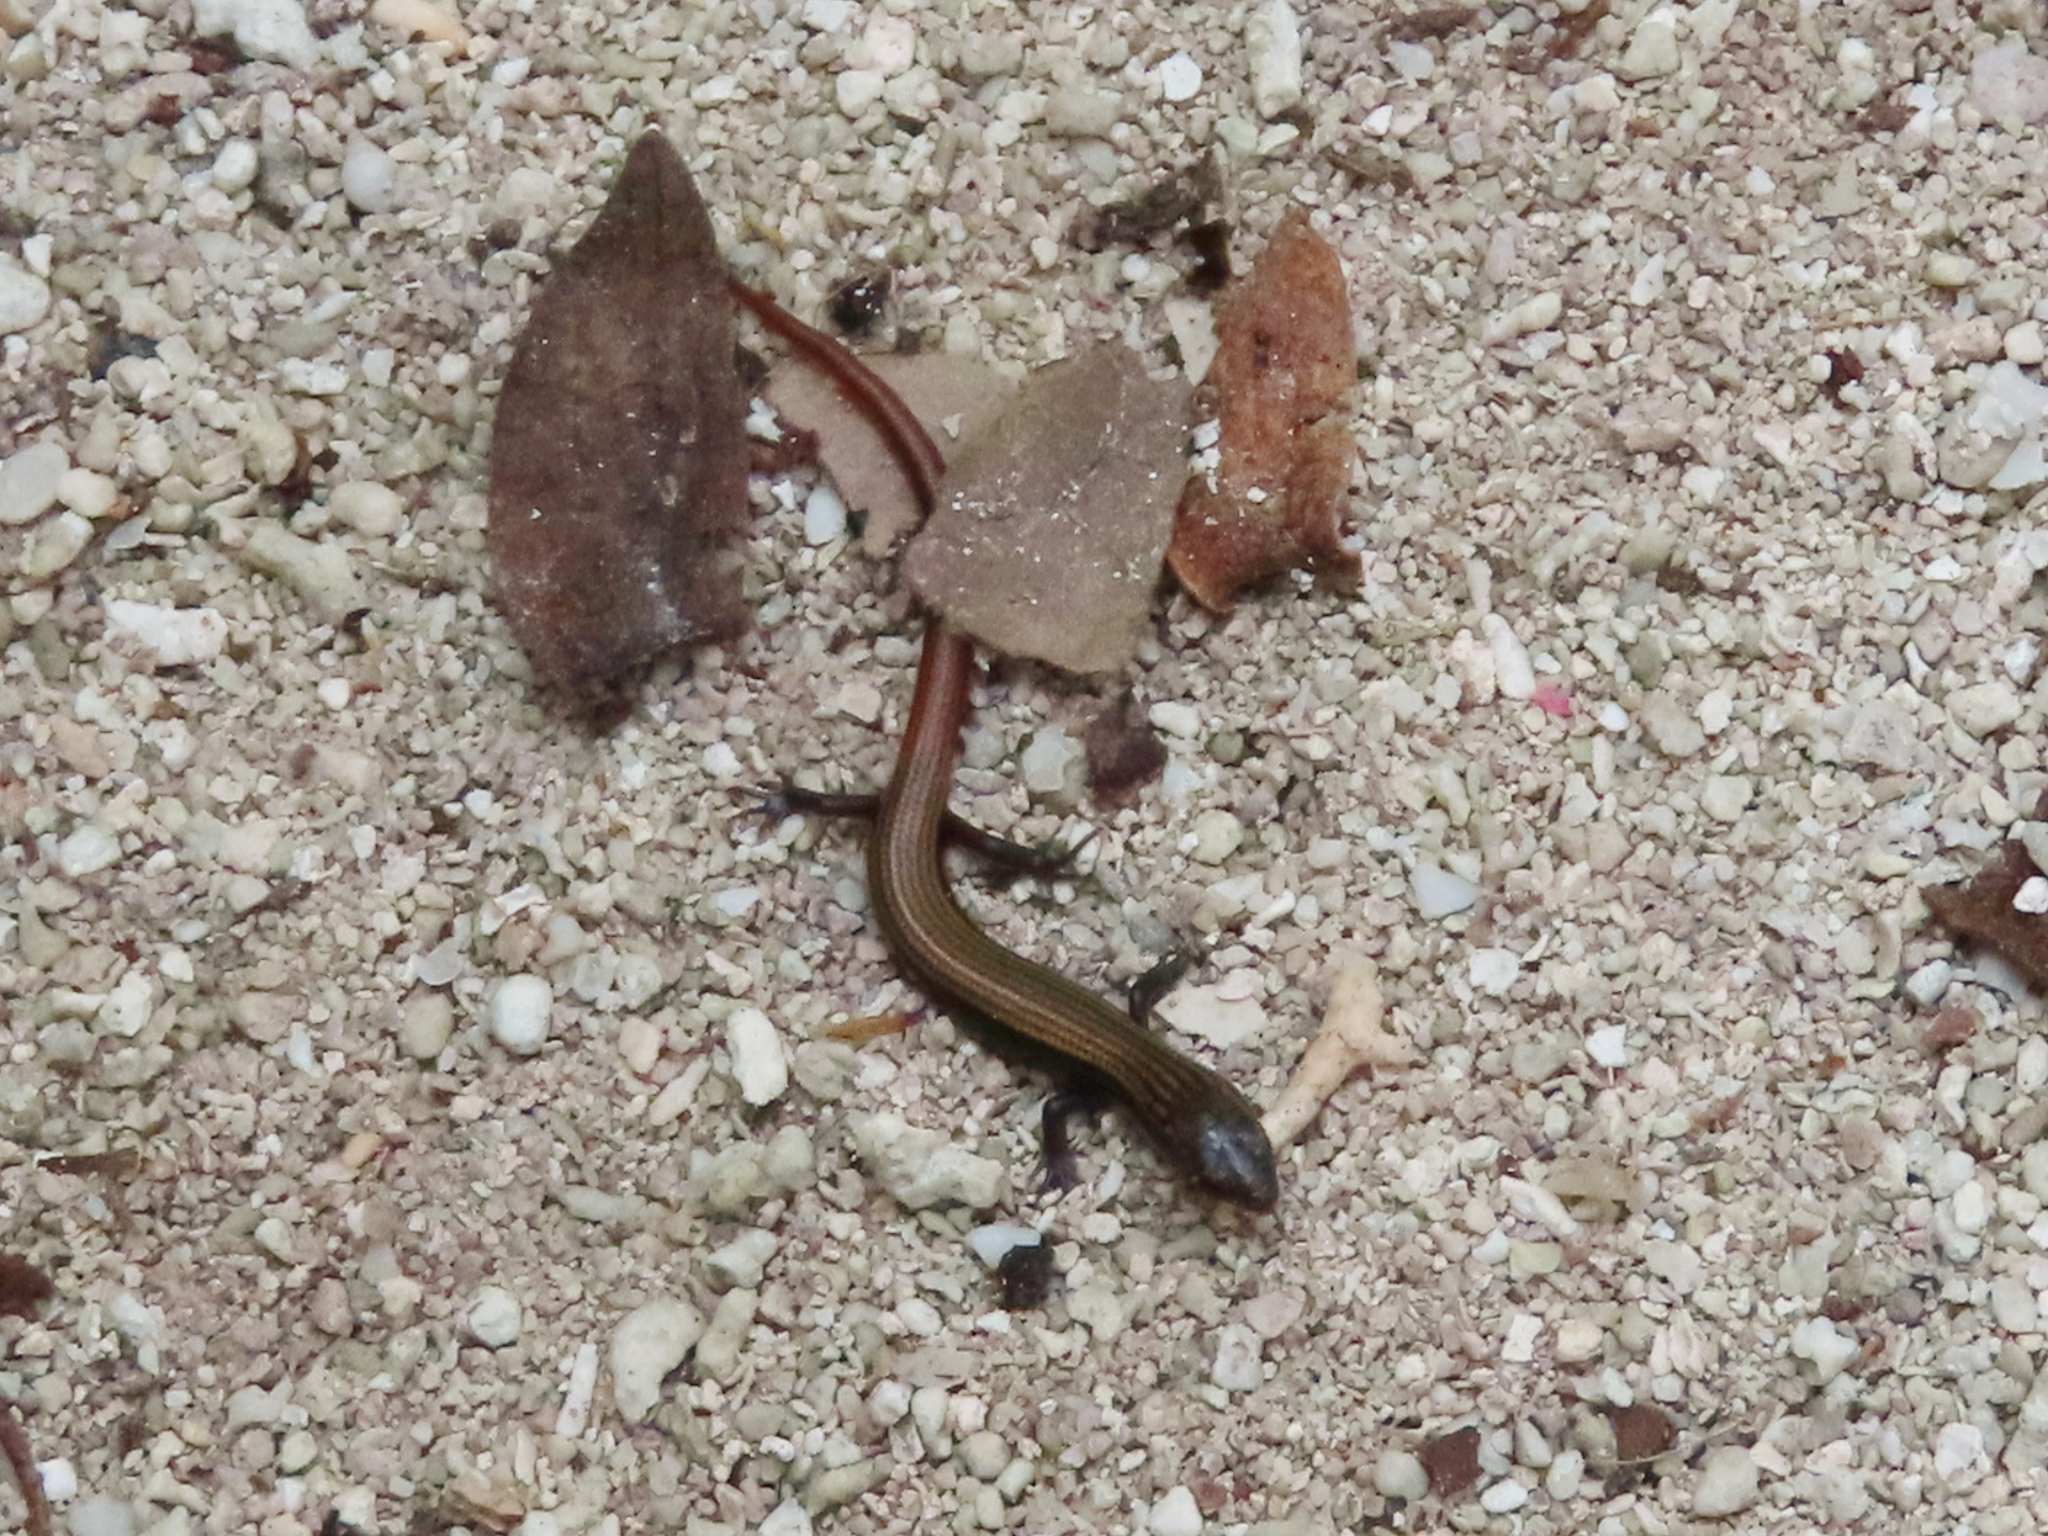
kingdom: Animalia
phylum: Chordata
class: Squamata
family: Scincidae
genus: Riopa
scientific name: Riopa albopunctata
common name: White-spotted supple skink
